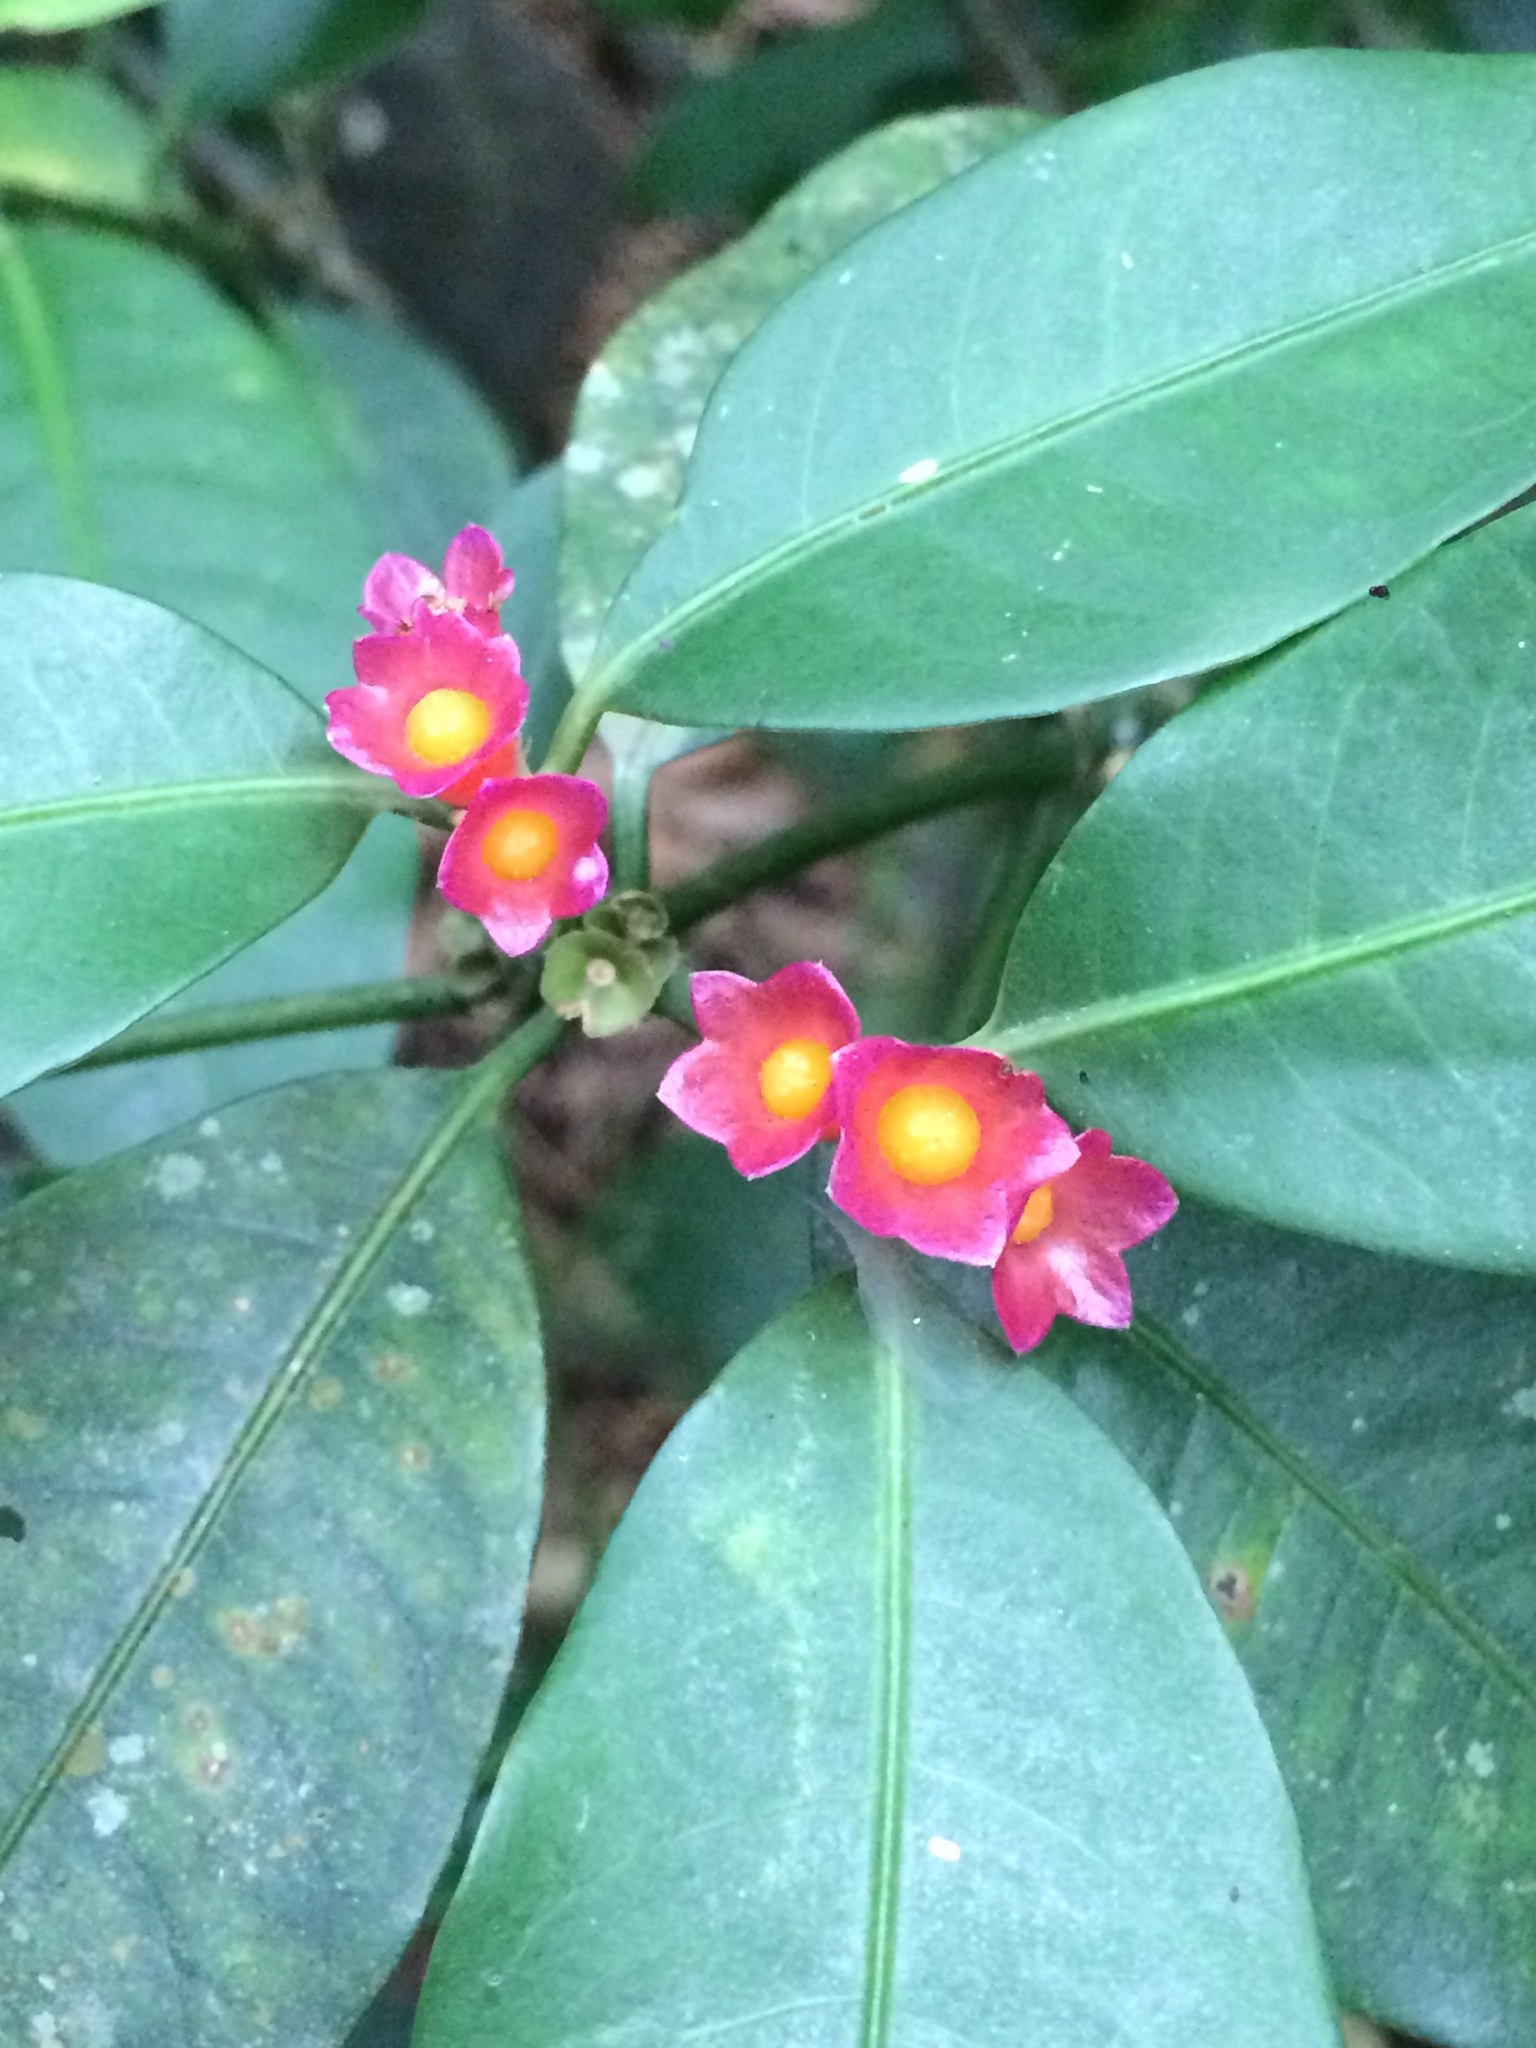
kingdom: Plantae
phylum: Tracheophyta
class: Magnoliopsida
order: Gentianales
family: Rubiaceae
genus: Psychotria
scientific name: Psychotria nuda
